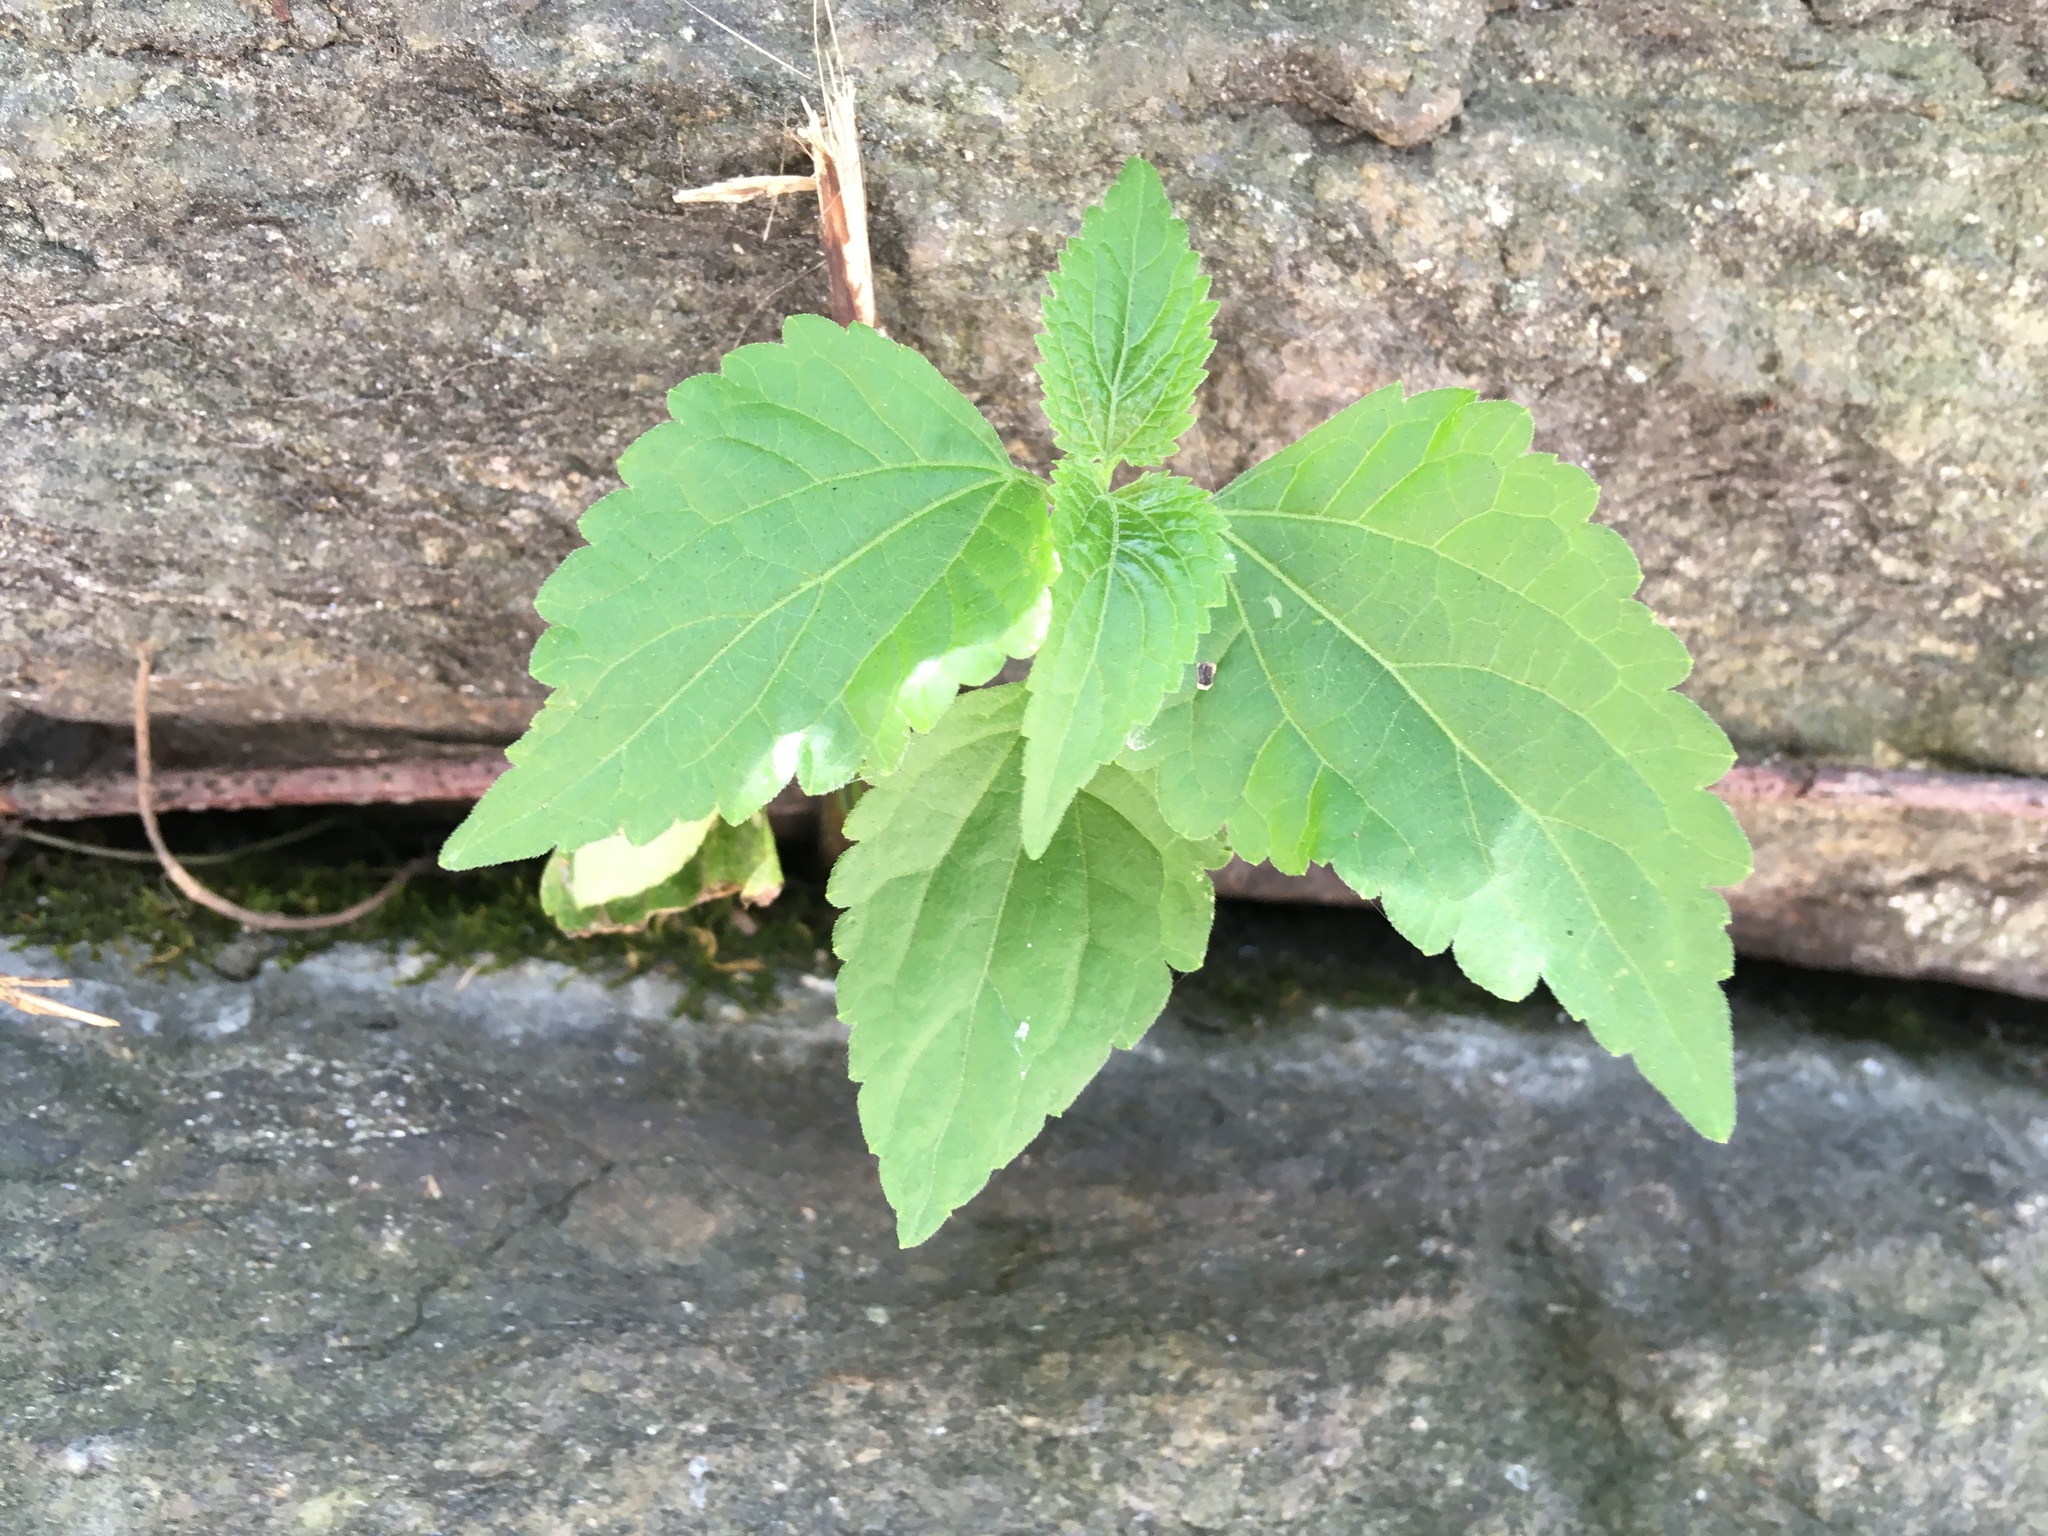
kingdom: Plantae
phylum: Tracheophyta
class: Magnoliopsida
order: Asterales
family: Asteraceae
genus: Ageratina
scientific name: Ageratina altissima
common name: White snakeroot
